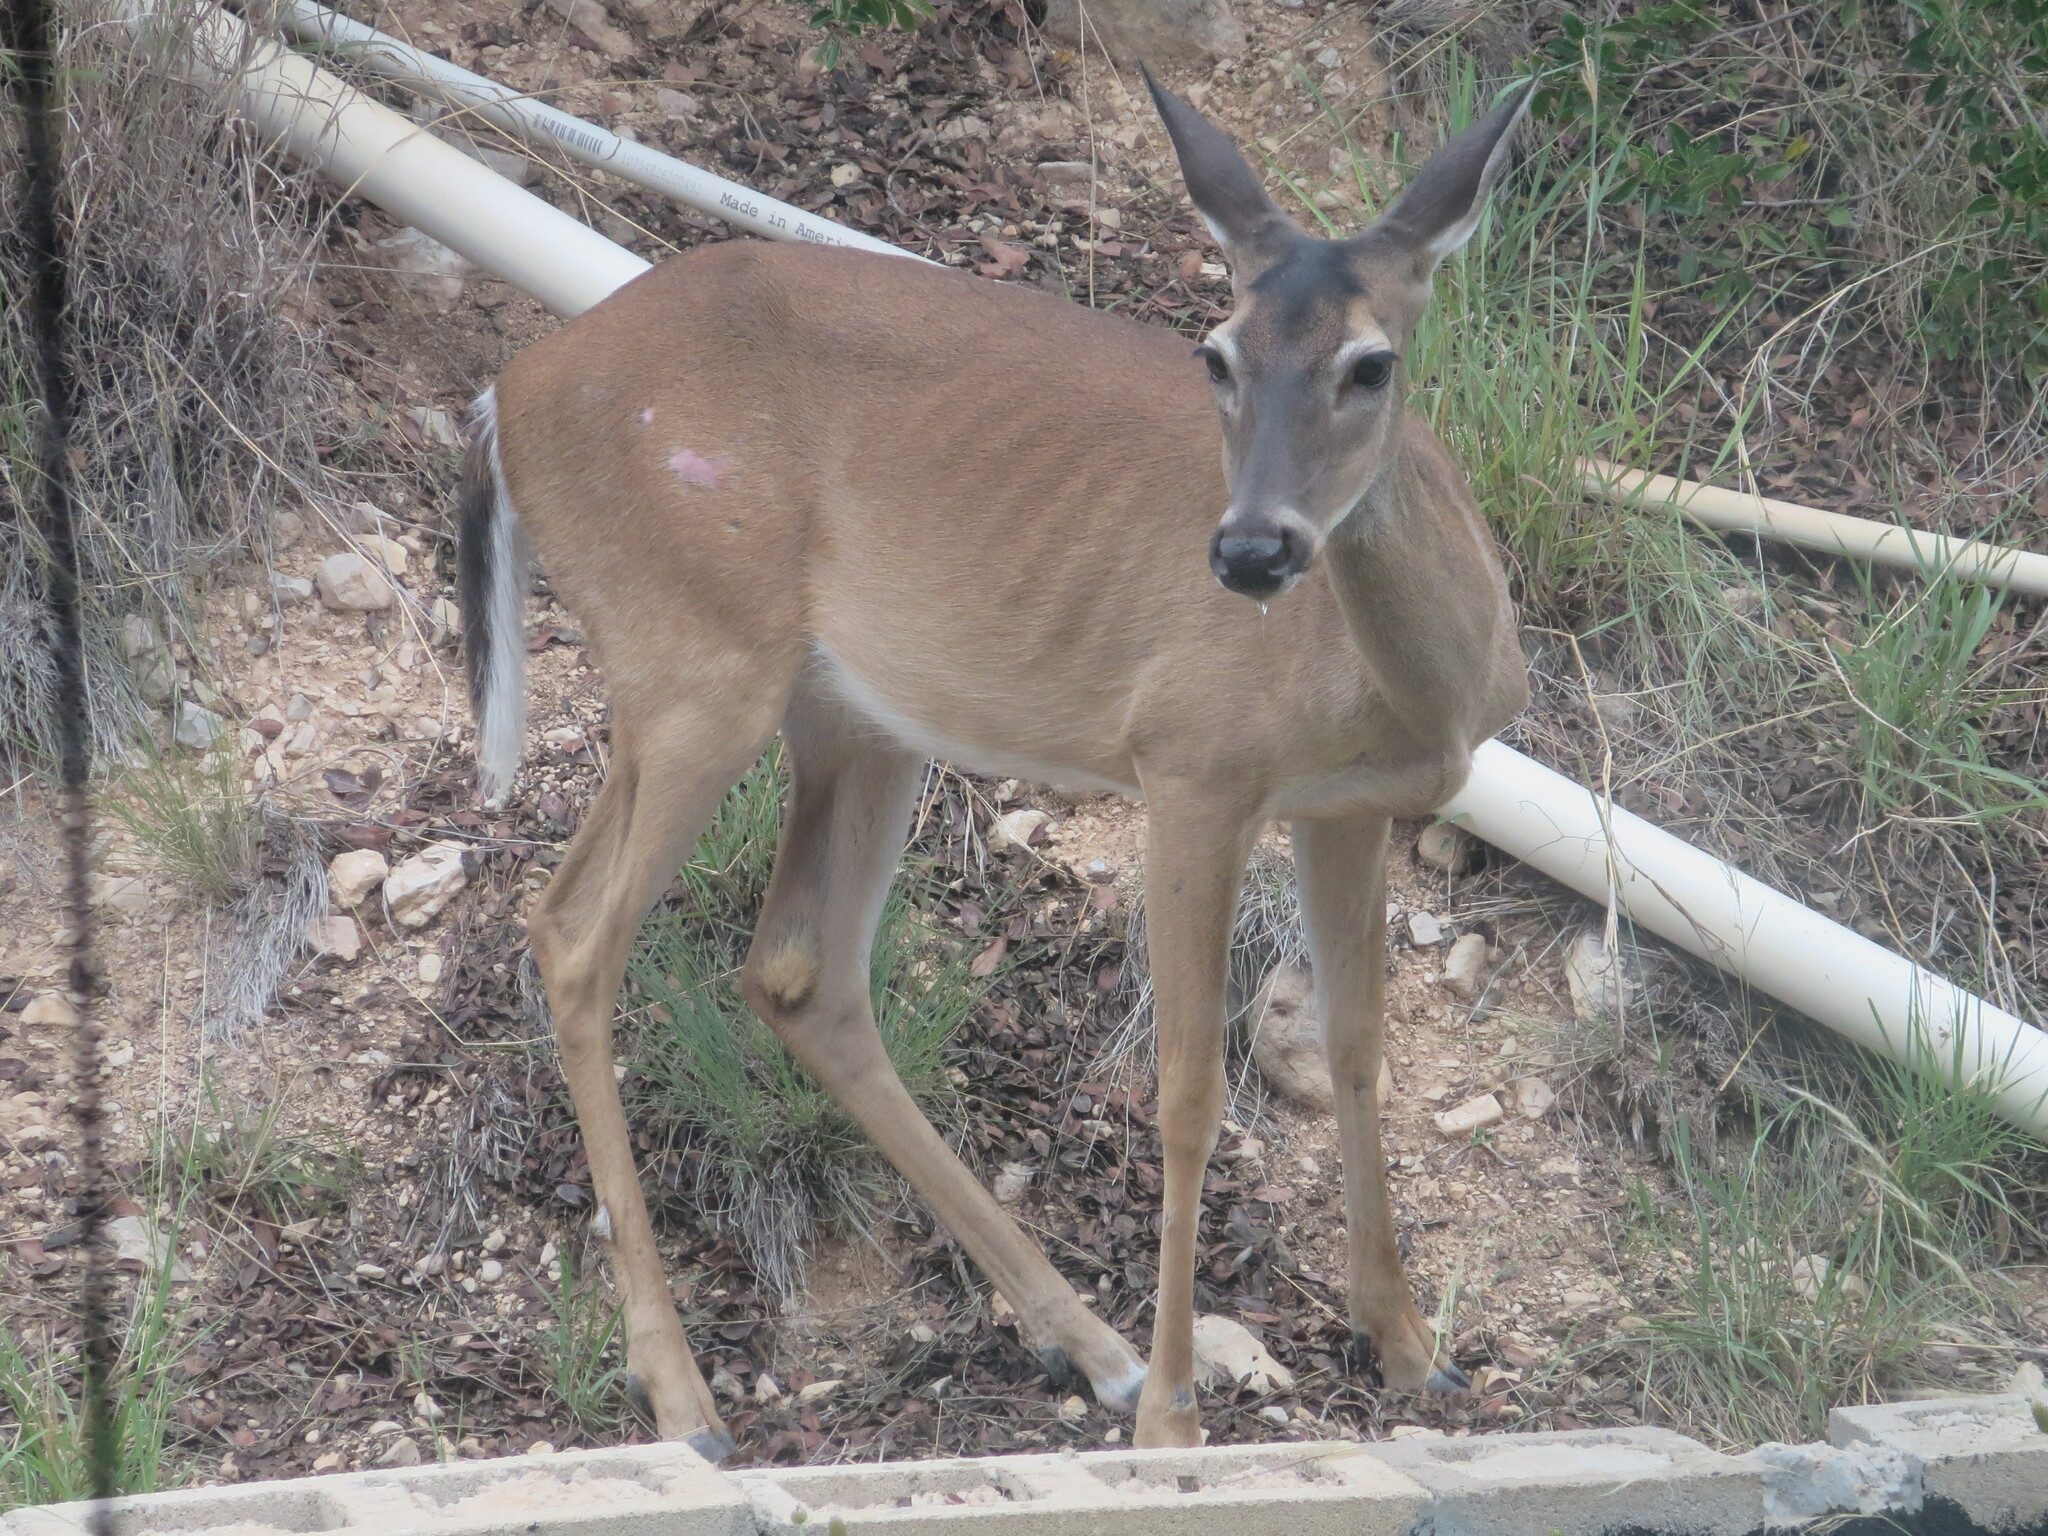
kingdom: Animalia
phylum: Chordata
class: Mammalia
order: Artiodactyla
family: Cervidae
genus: Odocoileus
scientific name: Odocoileus virginianus
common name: White-tailed deer
